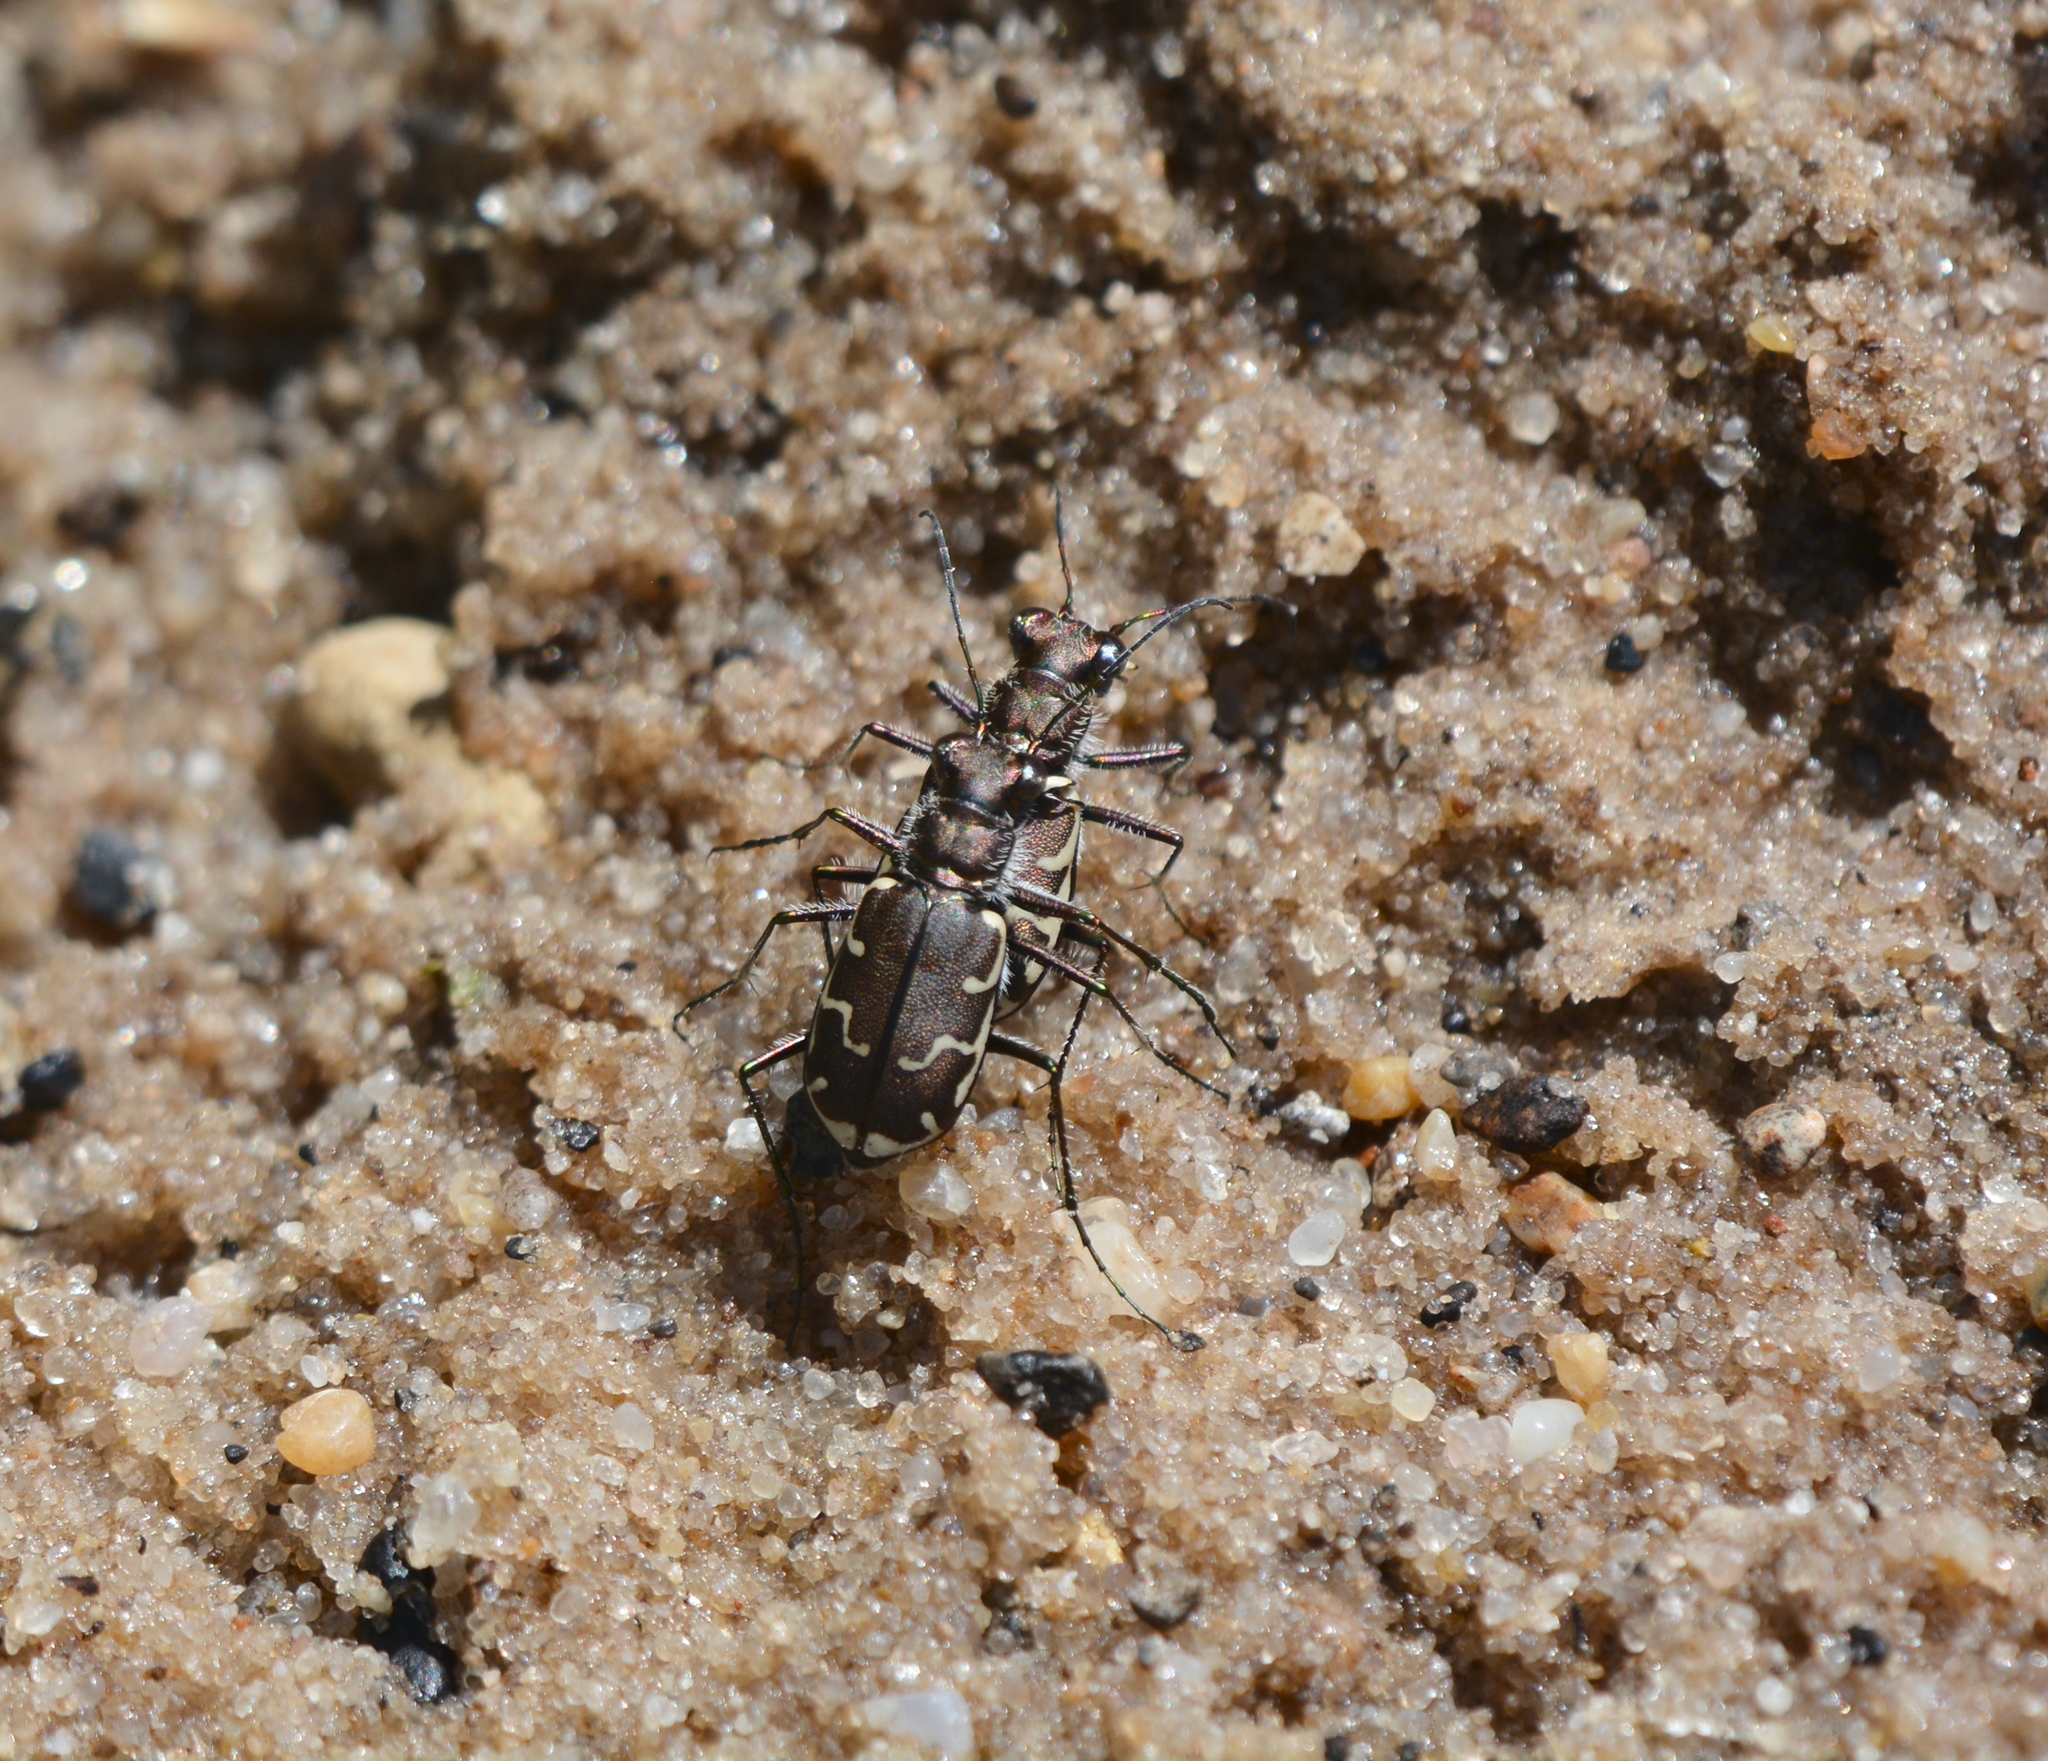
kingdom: Animalia
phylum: Arthropoda
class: Insecta
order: Coleoptera
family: Carabidae
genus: Cicindela
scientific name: Cicindela repanda
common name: Bronzed tiger beetle
